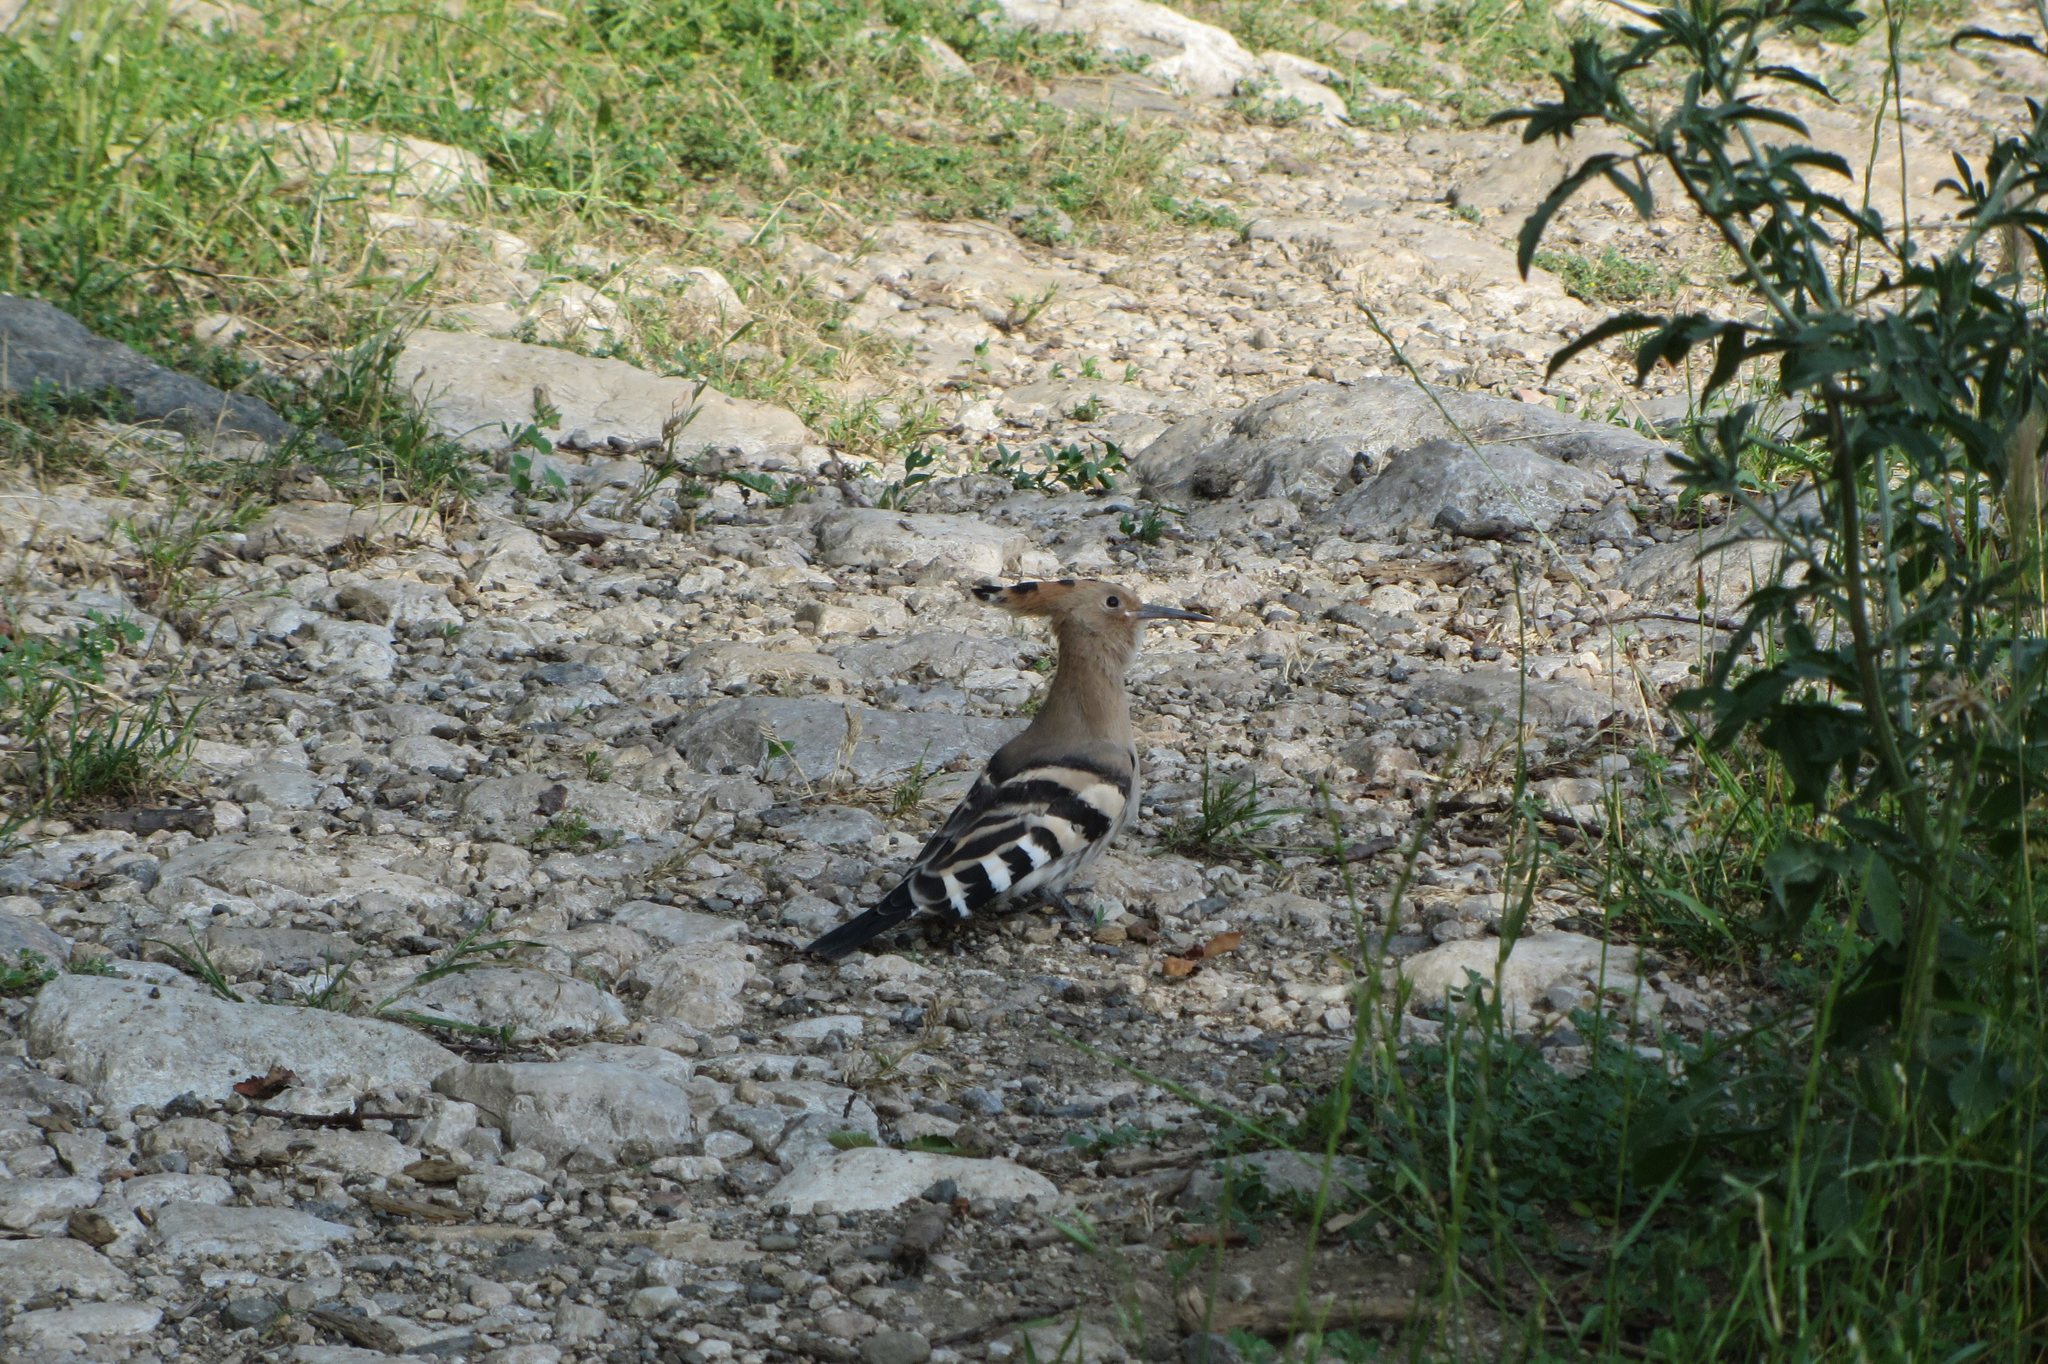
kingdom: Animalia
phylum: Chordata
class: Aves
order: Bucerotiformes
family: Upupidae
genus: Upupa
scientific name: Upupa epops
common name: Eurasian hoopoe
